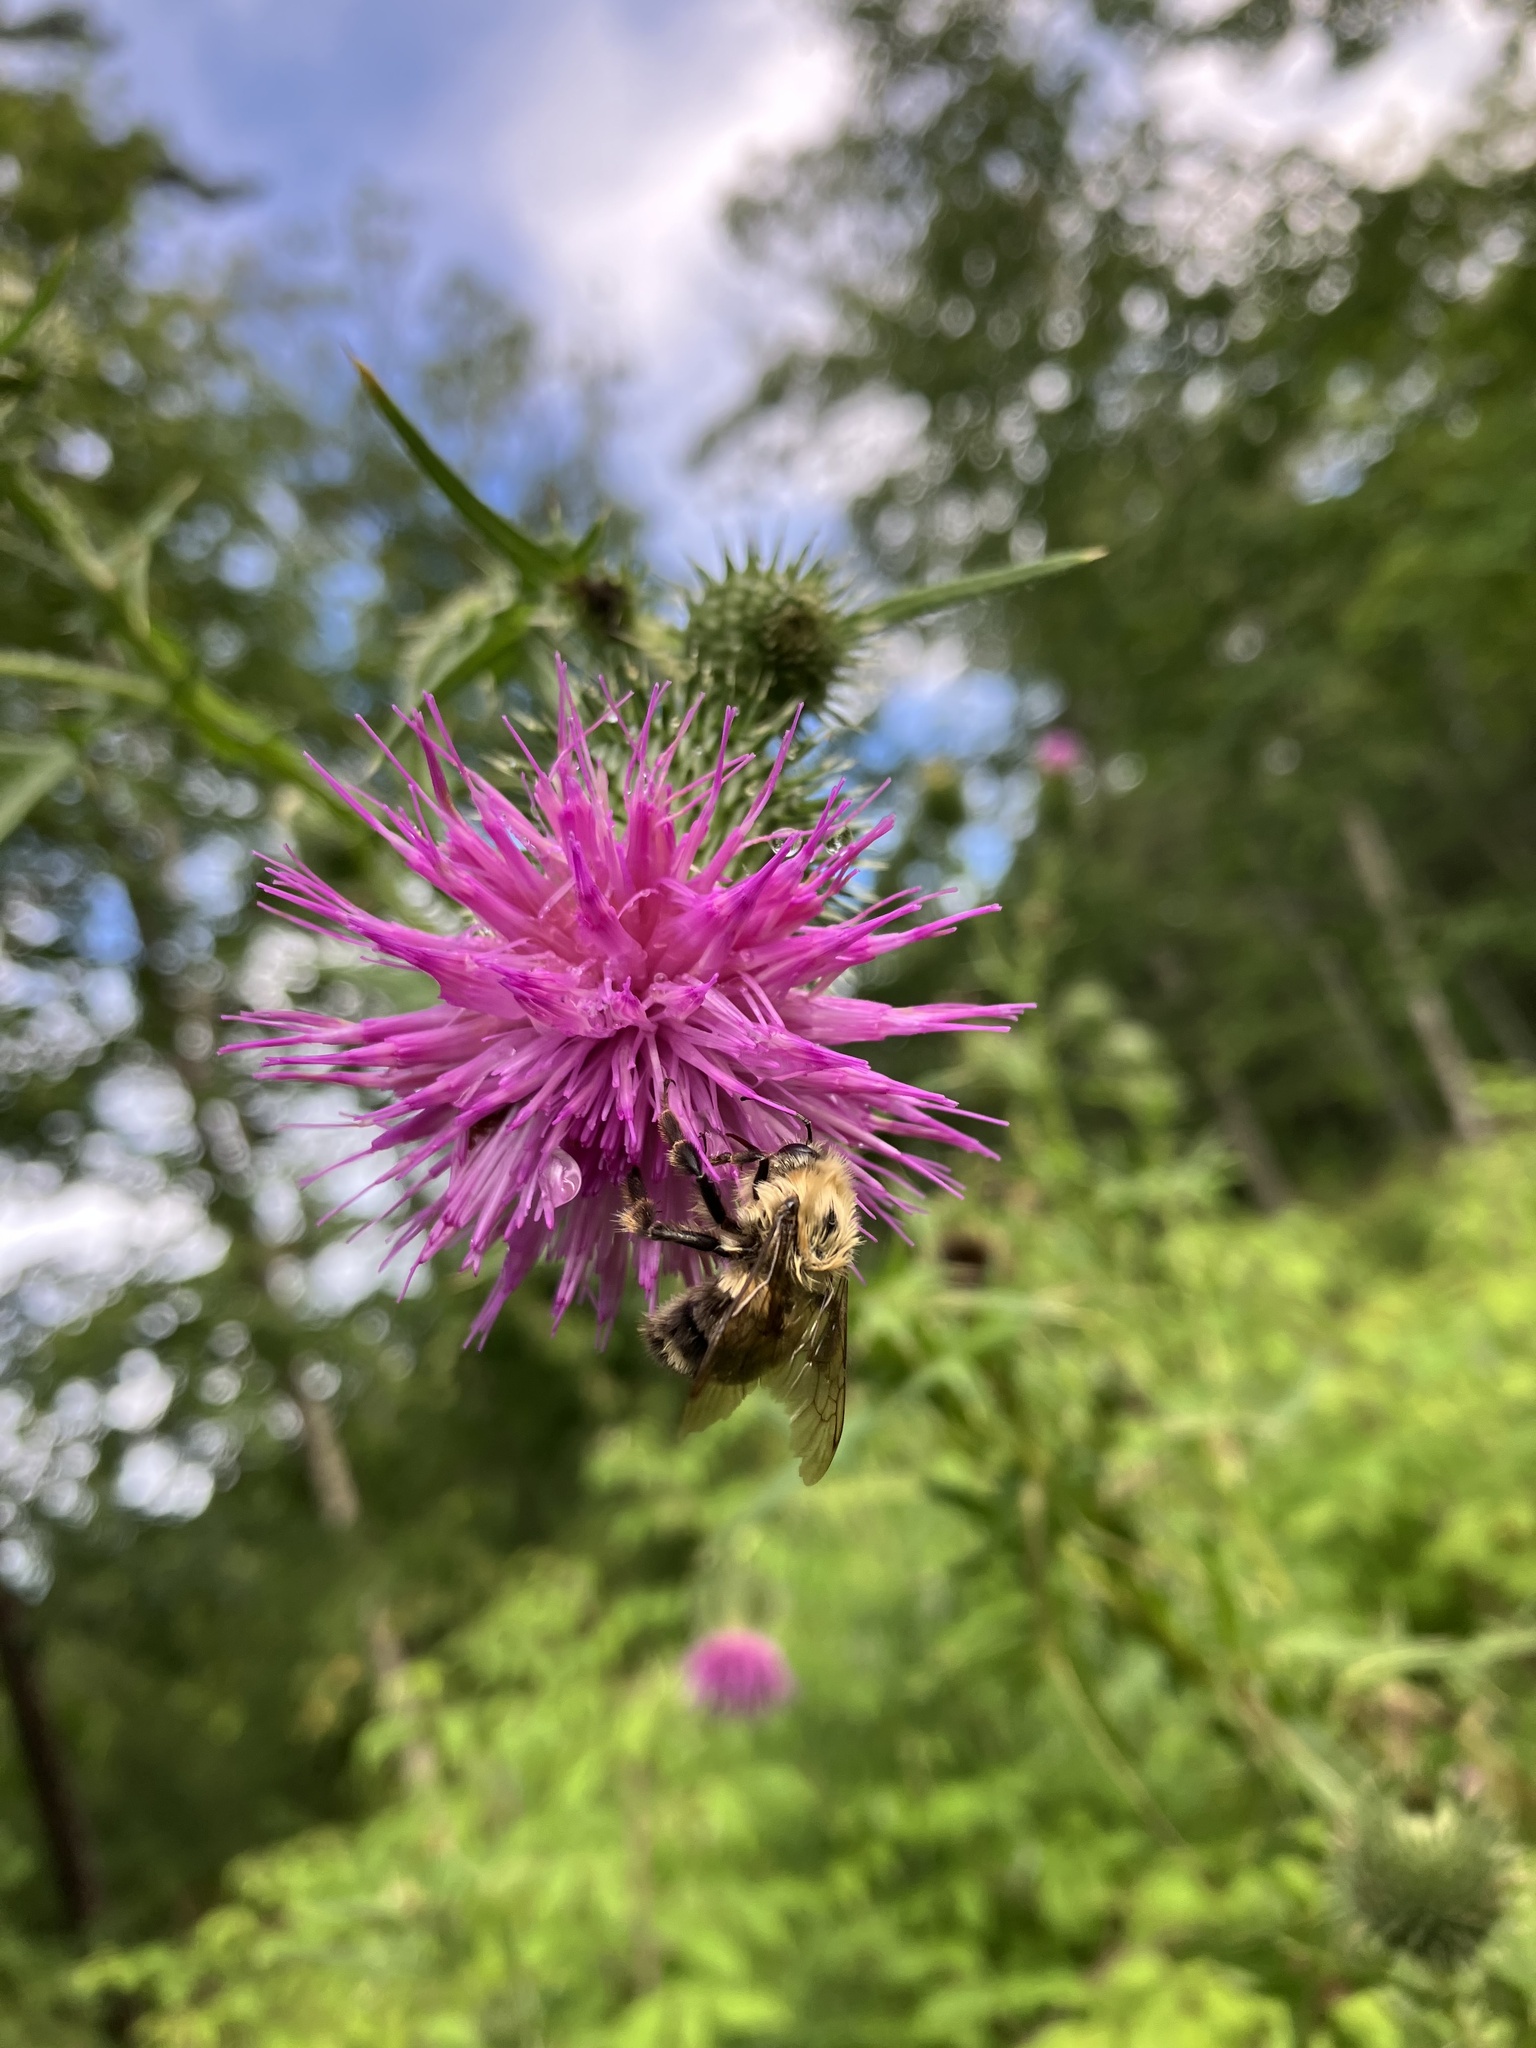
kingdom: Animalia
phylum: Arthropoda
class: Insecta
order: Hymenoptera
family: Apidae
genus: Bombus
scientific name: Bombus bimaculatus
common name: Two-spotted bumble bee
